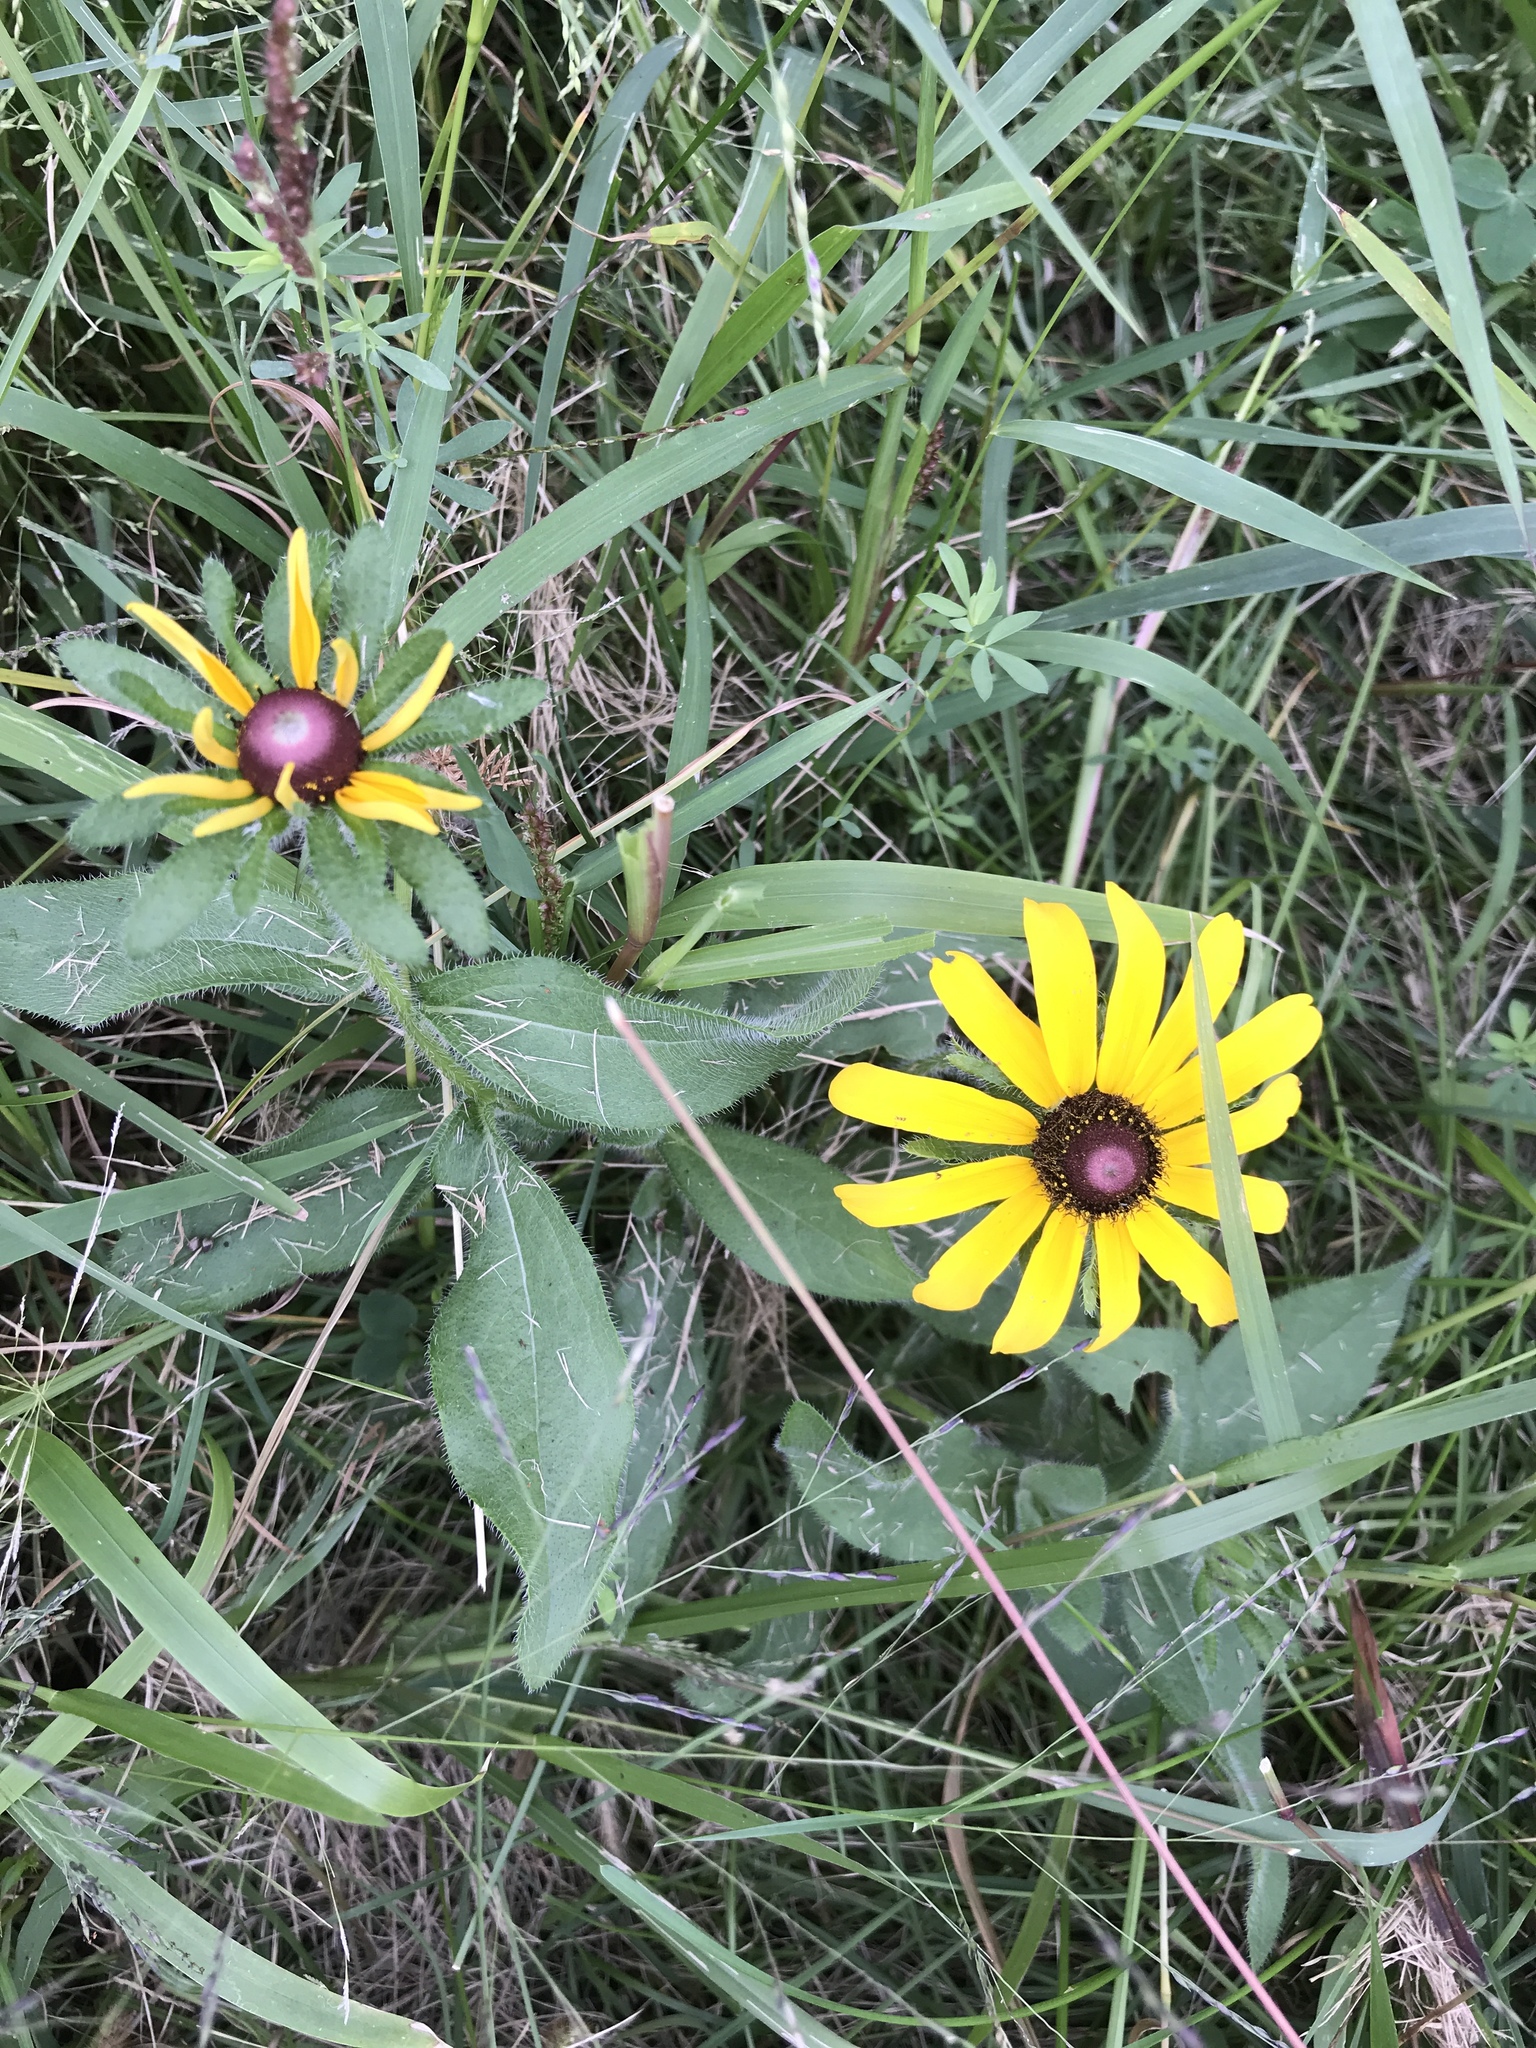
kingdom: Plantae
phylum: Tracheophyta
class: Magnoliopsida
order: Asterales
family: Asteraceae
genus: Rudbeckia
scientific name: Rudbeckia hirta
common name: Black-eyed-susan
